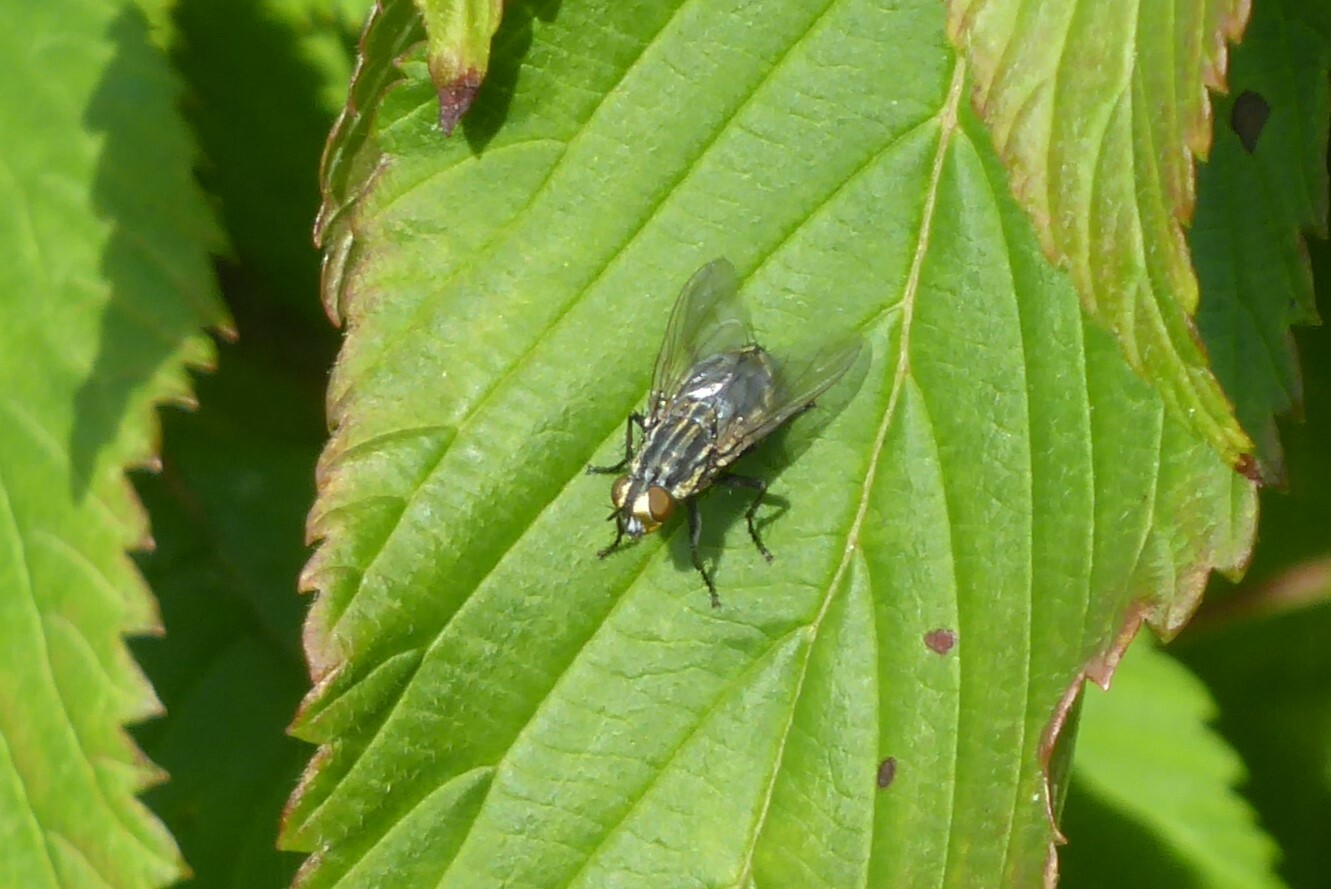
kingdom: Animalia
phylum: Arthropoda
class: Insecta
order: Diptera
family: Sarcophagidae
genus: Oxysarcodexia
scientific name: Oxysarcodexia varia
